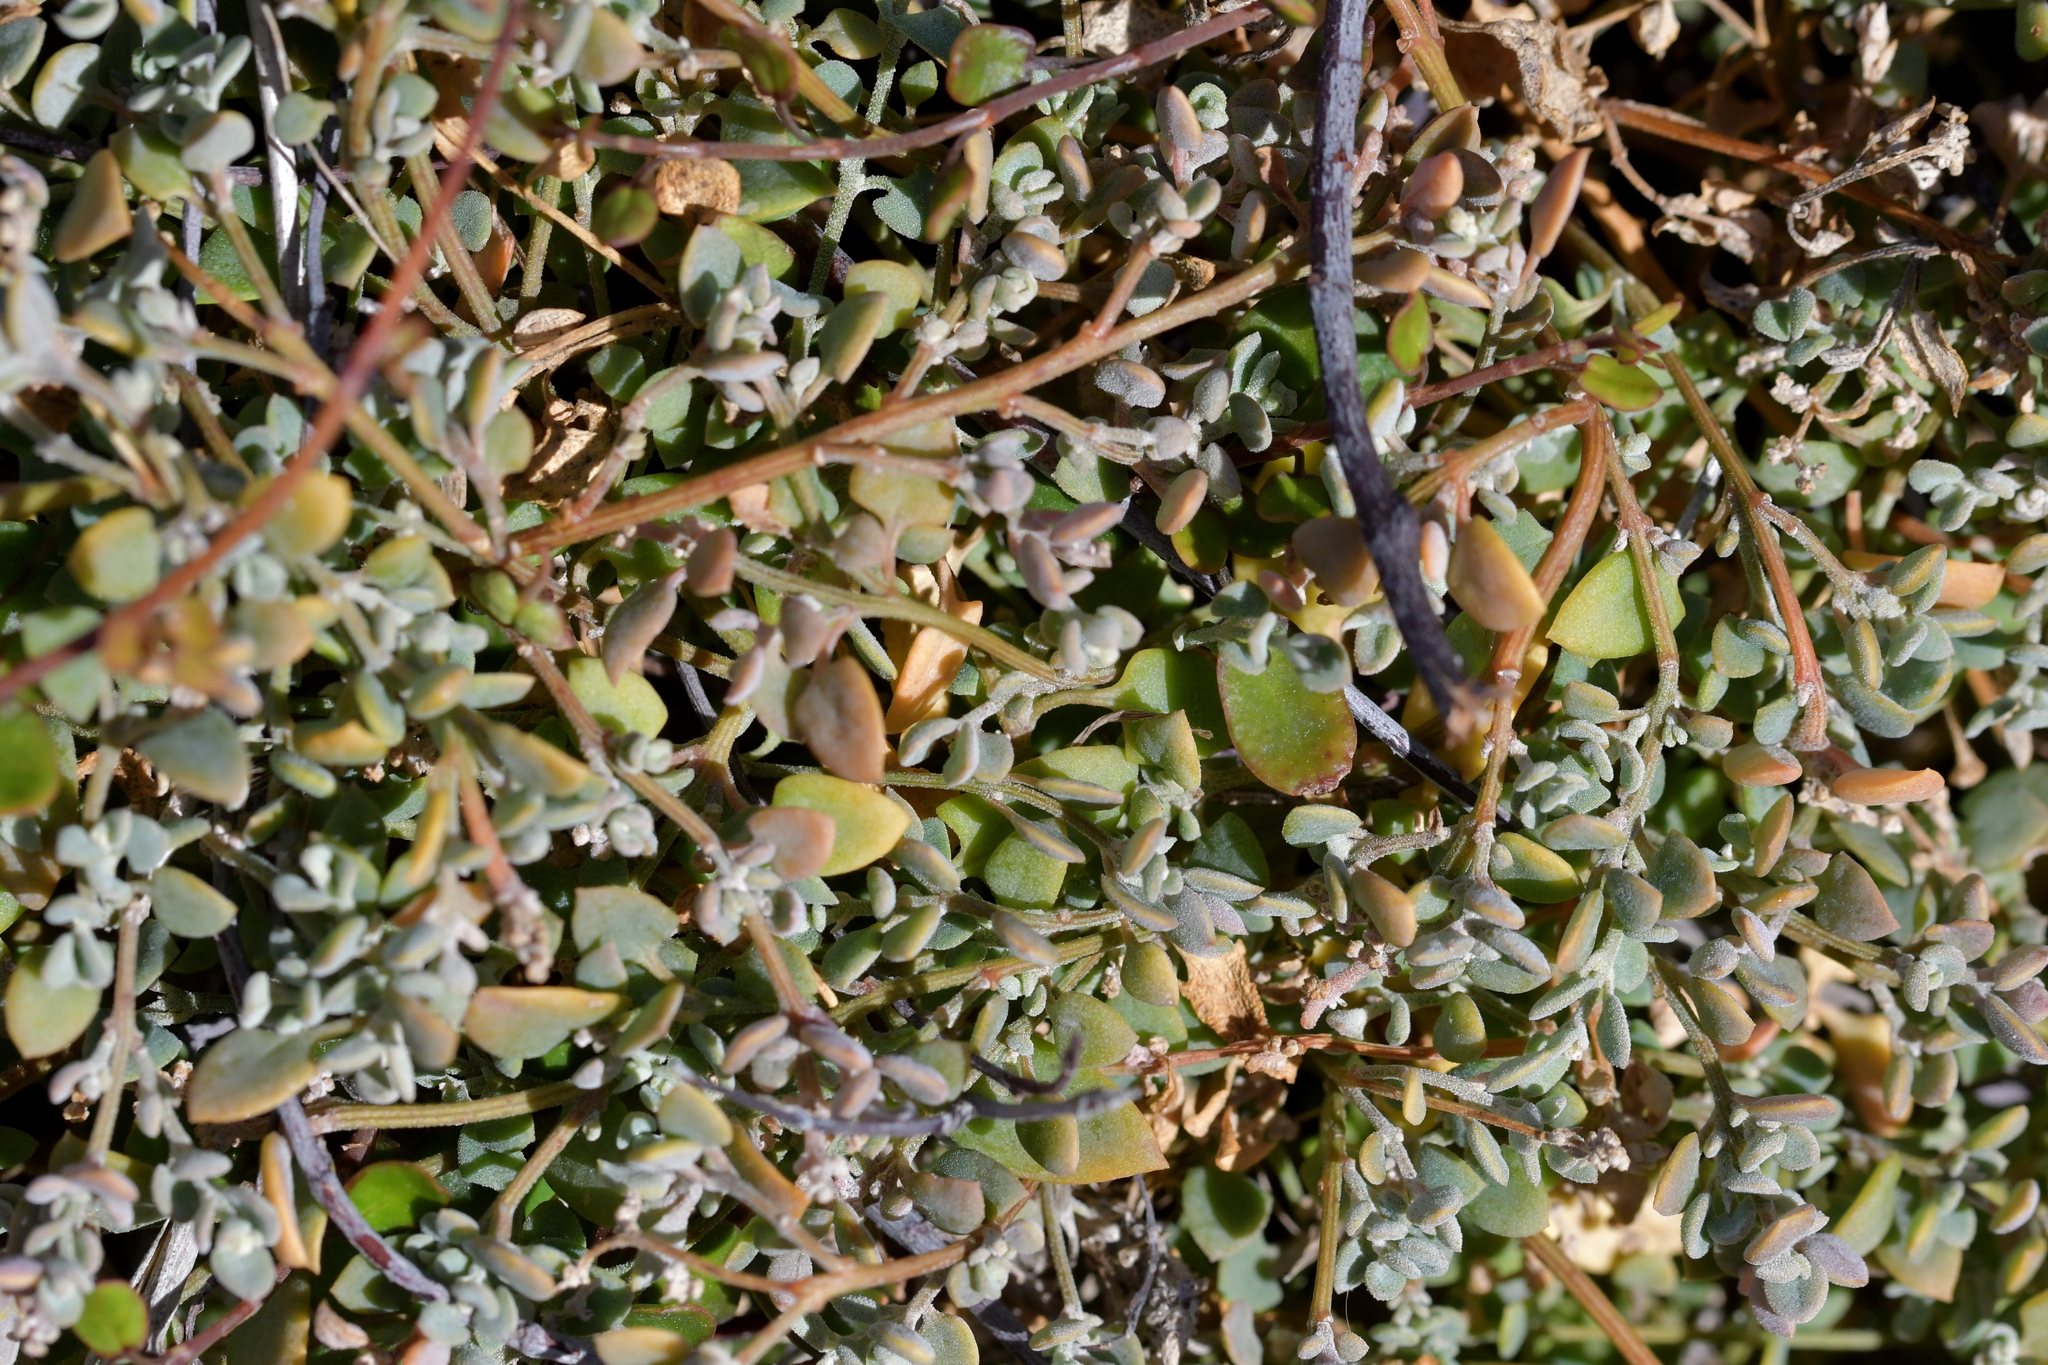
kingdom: Plantae
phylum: Tracheophyta
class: Magnoliopsida
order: Caryophyllales
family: Amaranthaceae
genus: Chenopodium
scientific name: Chenopodium triandrum
